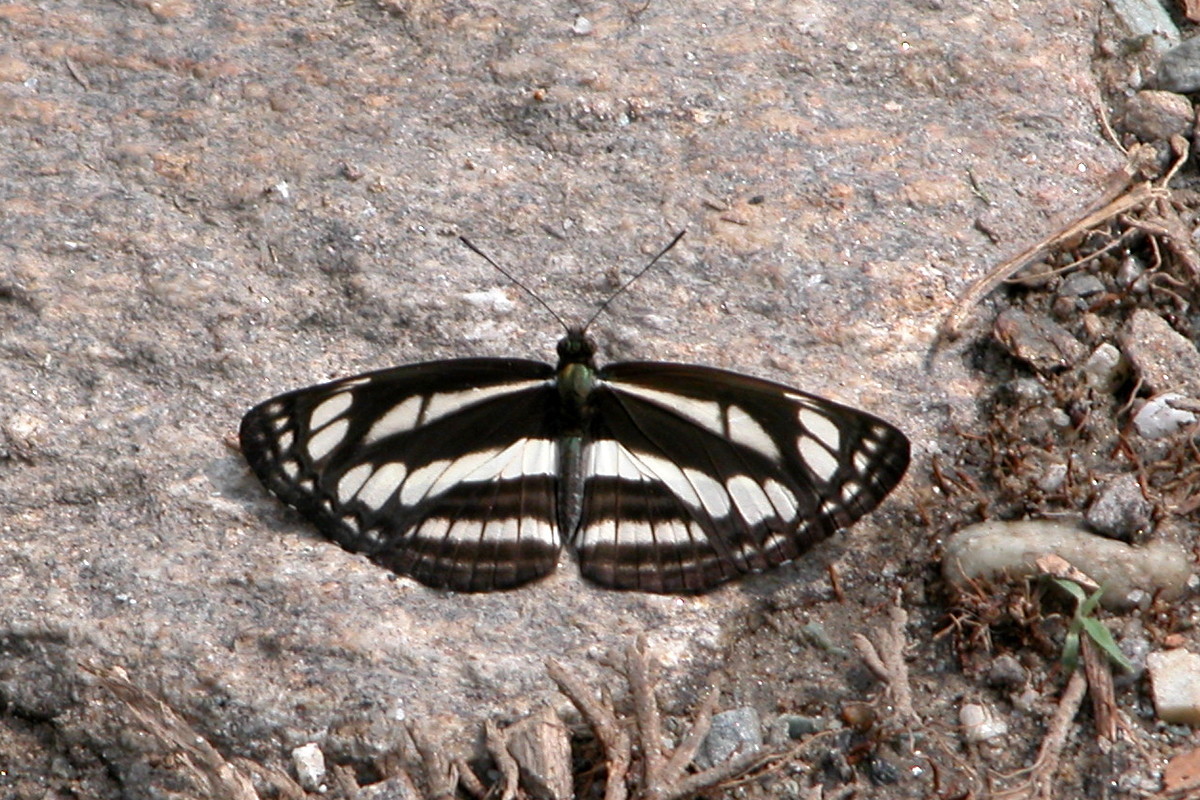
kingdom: Animalia
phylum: Arthropoda
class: Insecta
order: Lepidoptera
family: Nymphalidae
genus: Neptis
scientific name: Neptis soma
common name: Cream-spotted sailor
